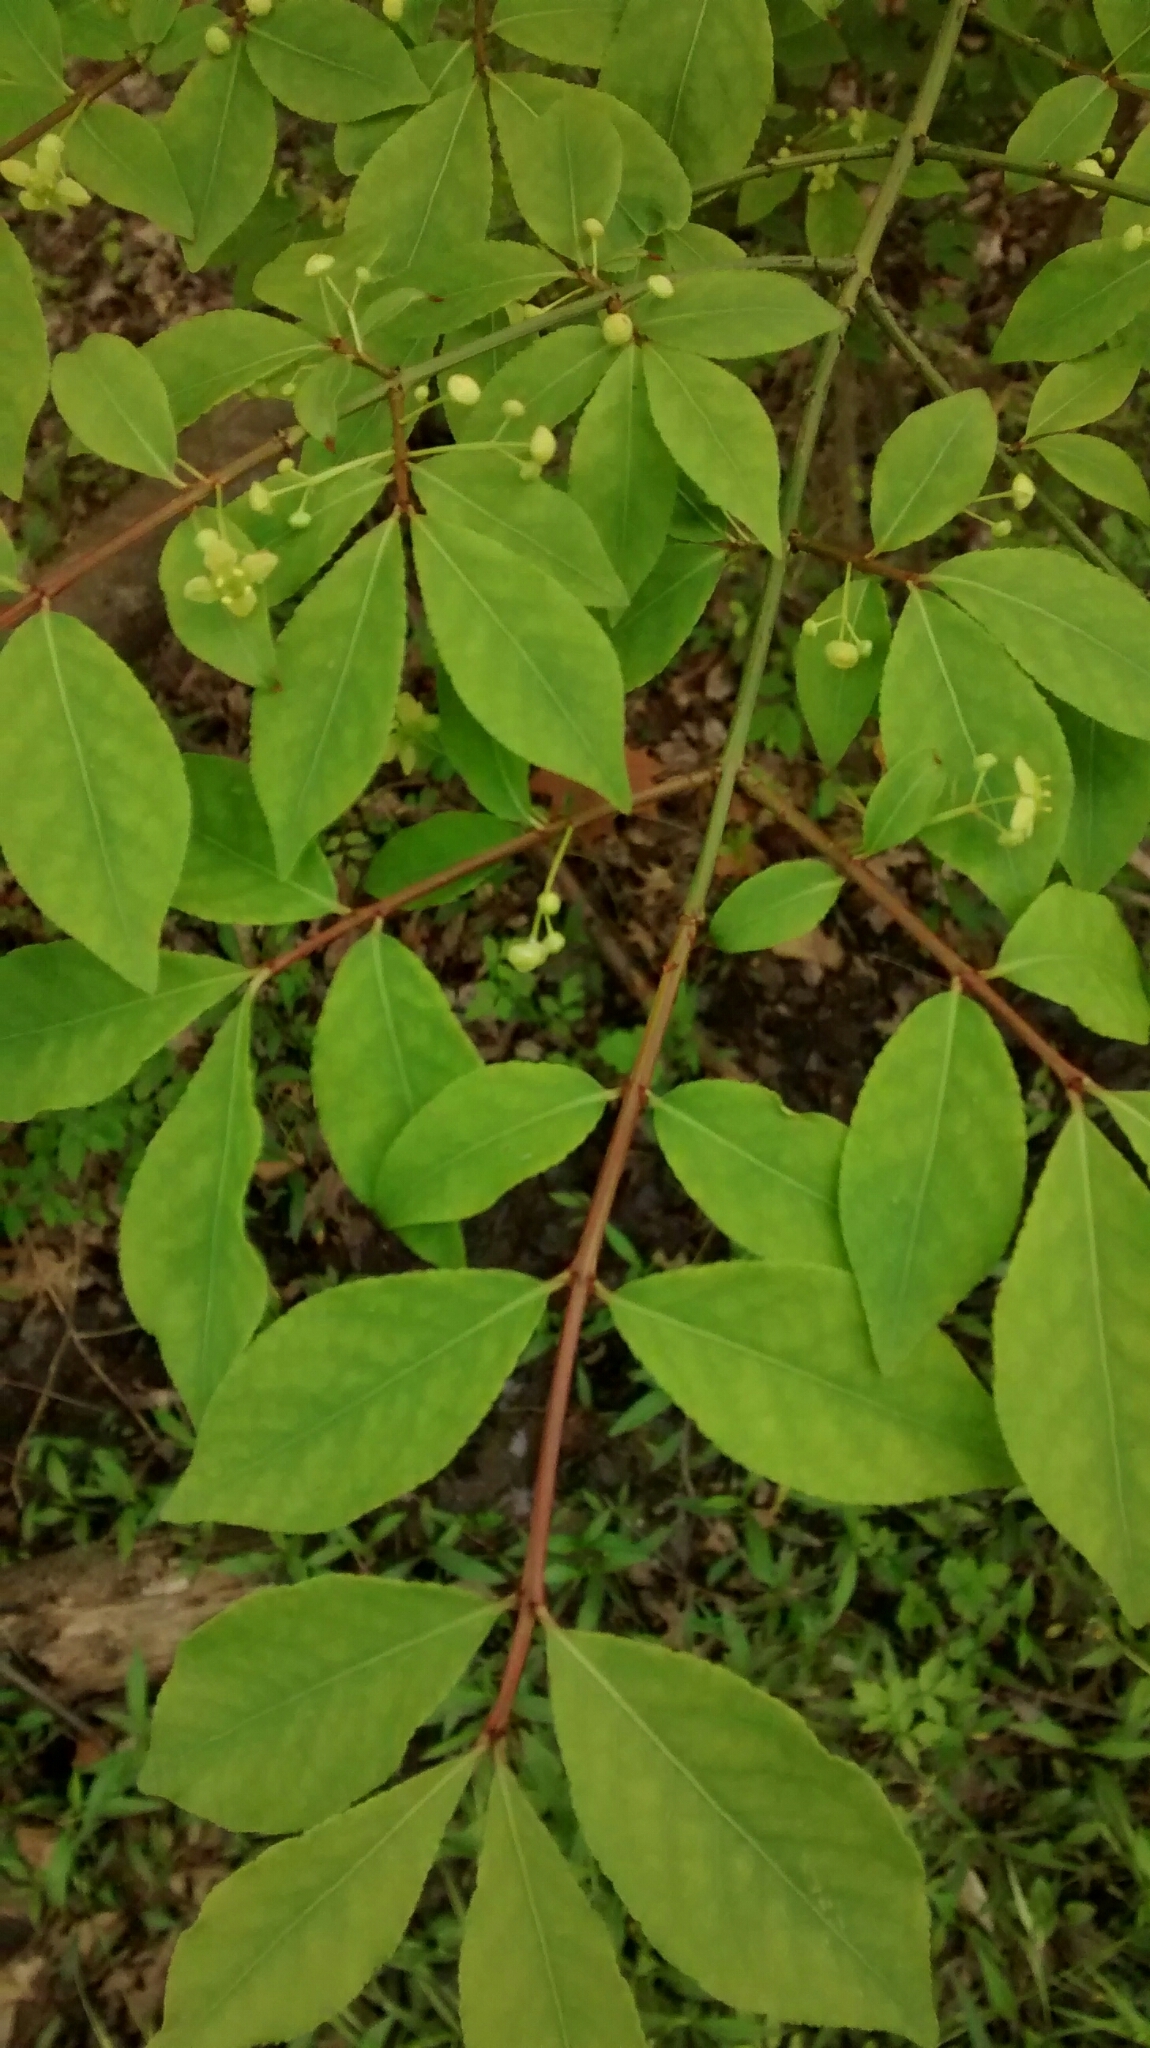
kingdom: Plantae
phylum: Tracheophyta
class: Magnoliopsida
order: Celastrales
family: Celastraceae
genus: Euonymus
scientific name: Euonymus alatus
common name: Winged euonymus
